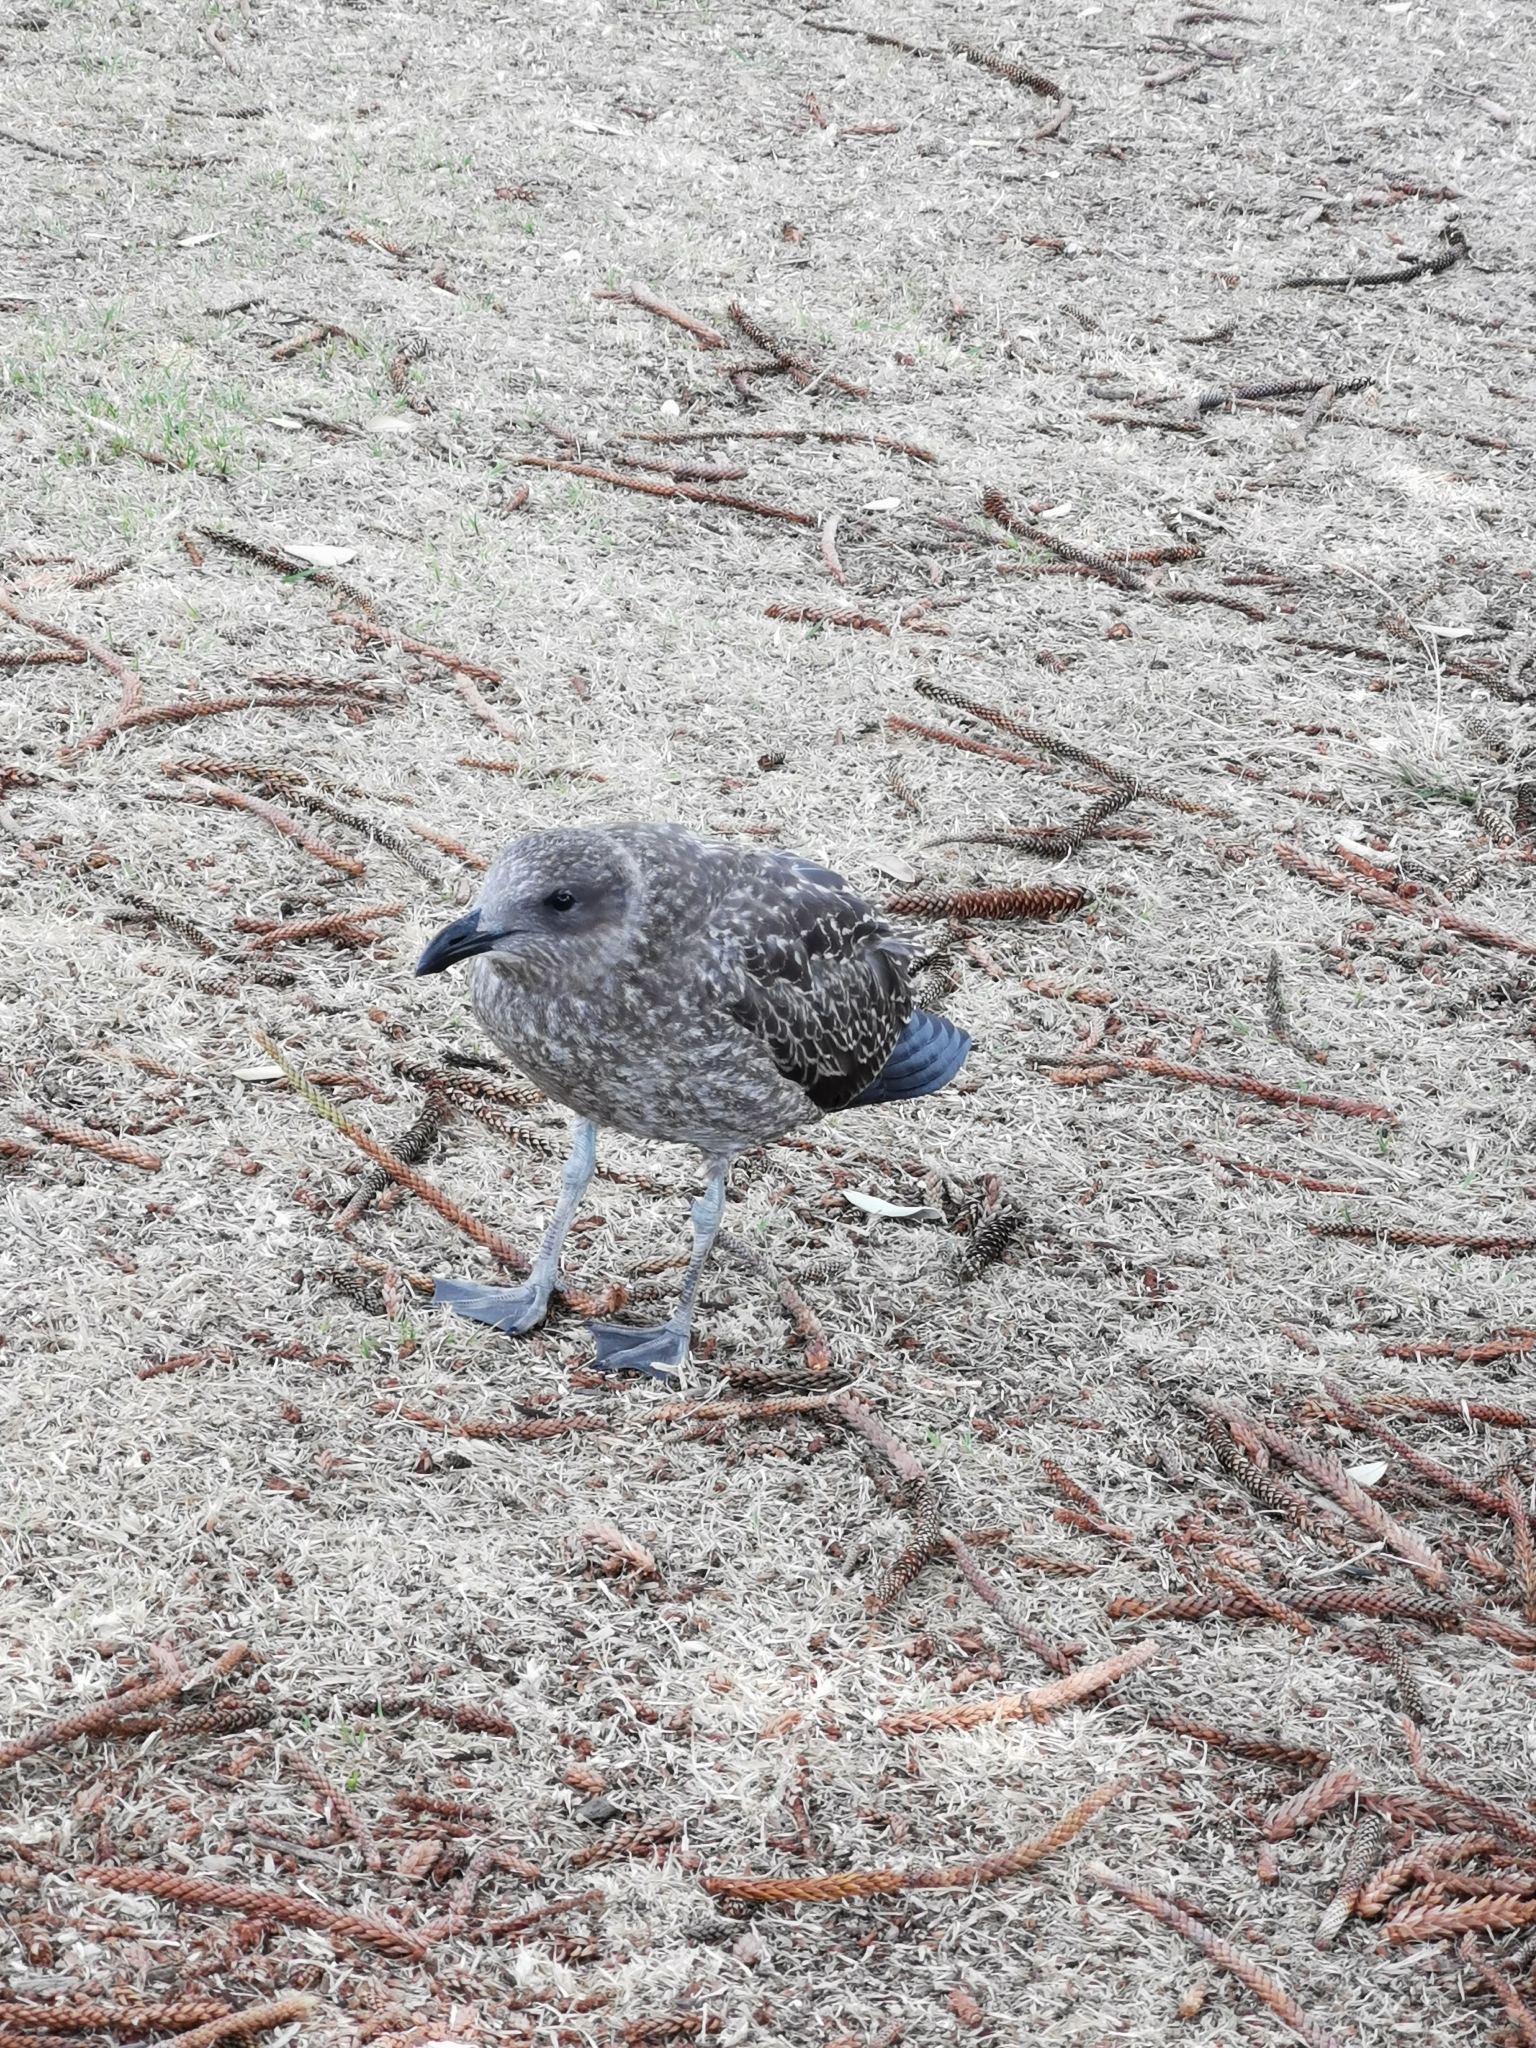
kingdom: Animalia
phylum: Chordata
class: Aves
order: Charadriiformes
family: Laridae
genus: Larus
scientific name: Larus dominicanus
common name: Kelp gull
